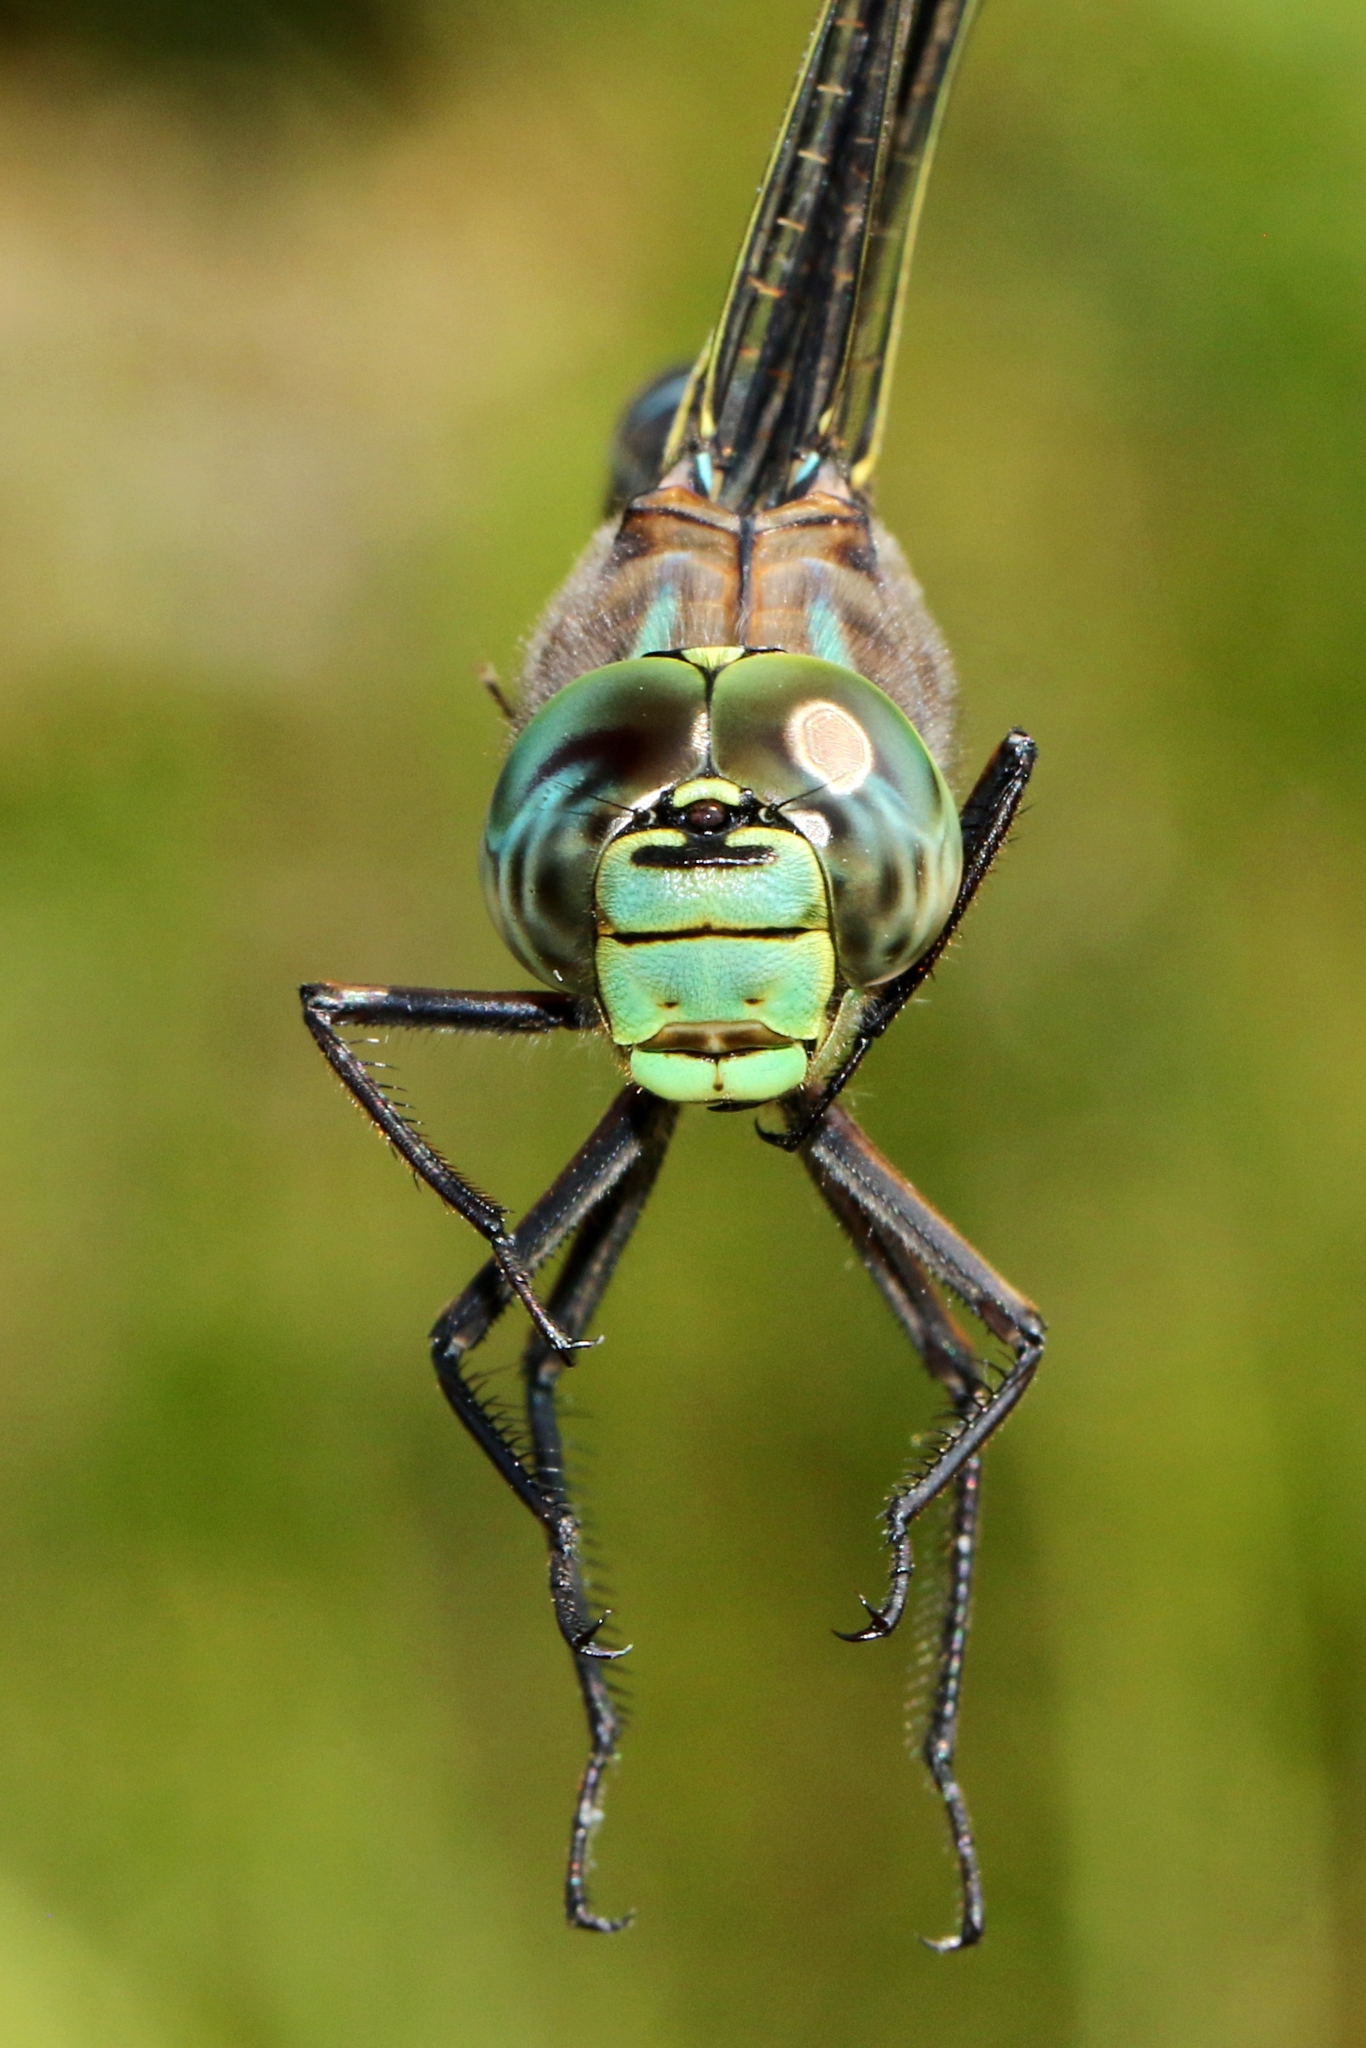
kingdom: Animalia
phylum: Arthropoda
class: Insecta
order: Odonata
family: Aeshnidae
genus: Aeshna
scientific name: Aeshna eremita
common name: Lake darner
